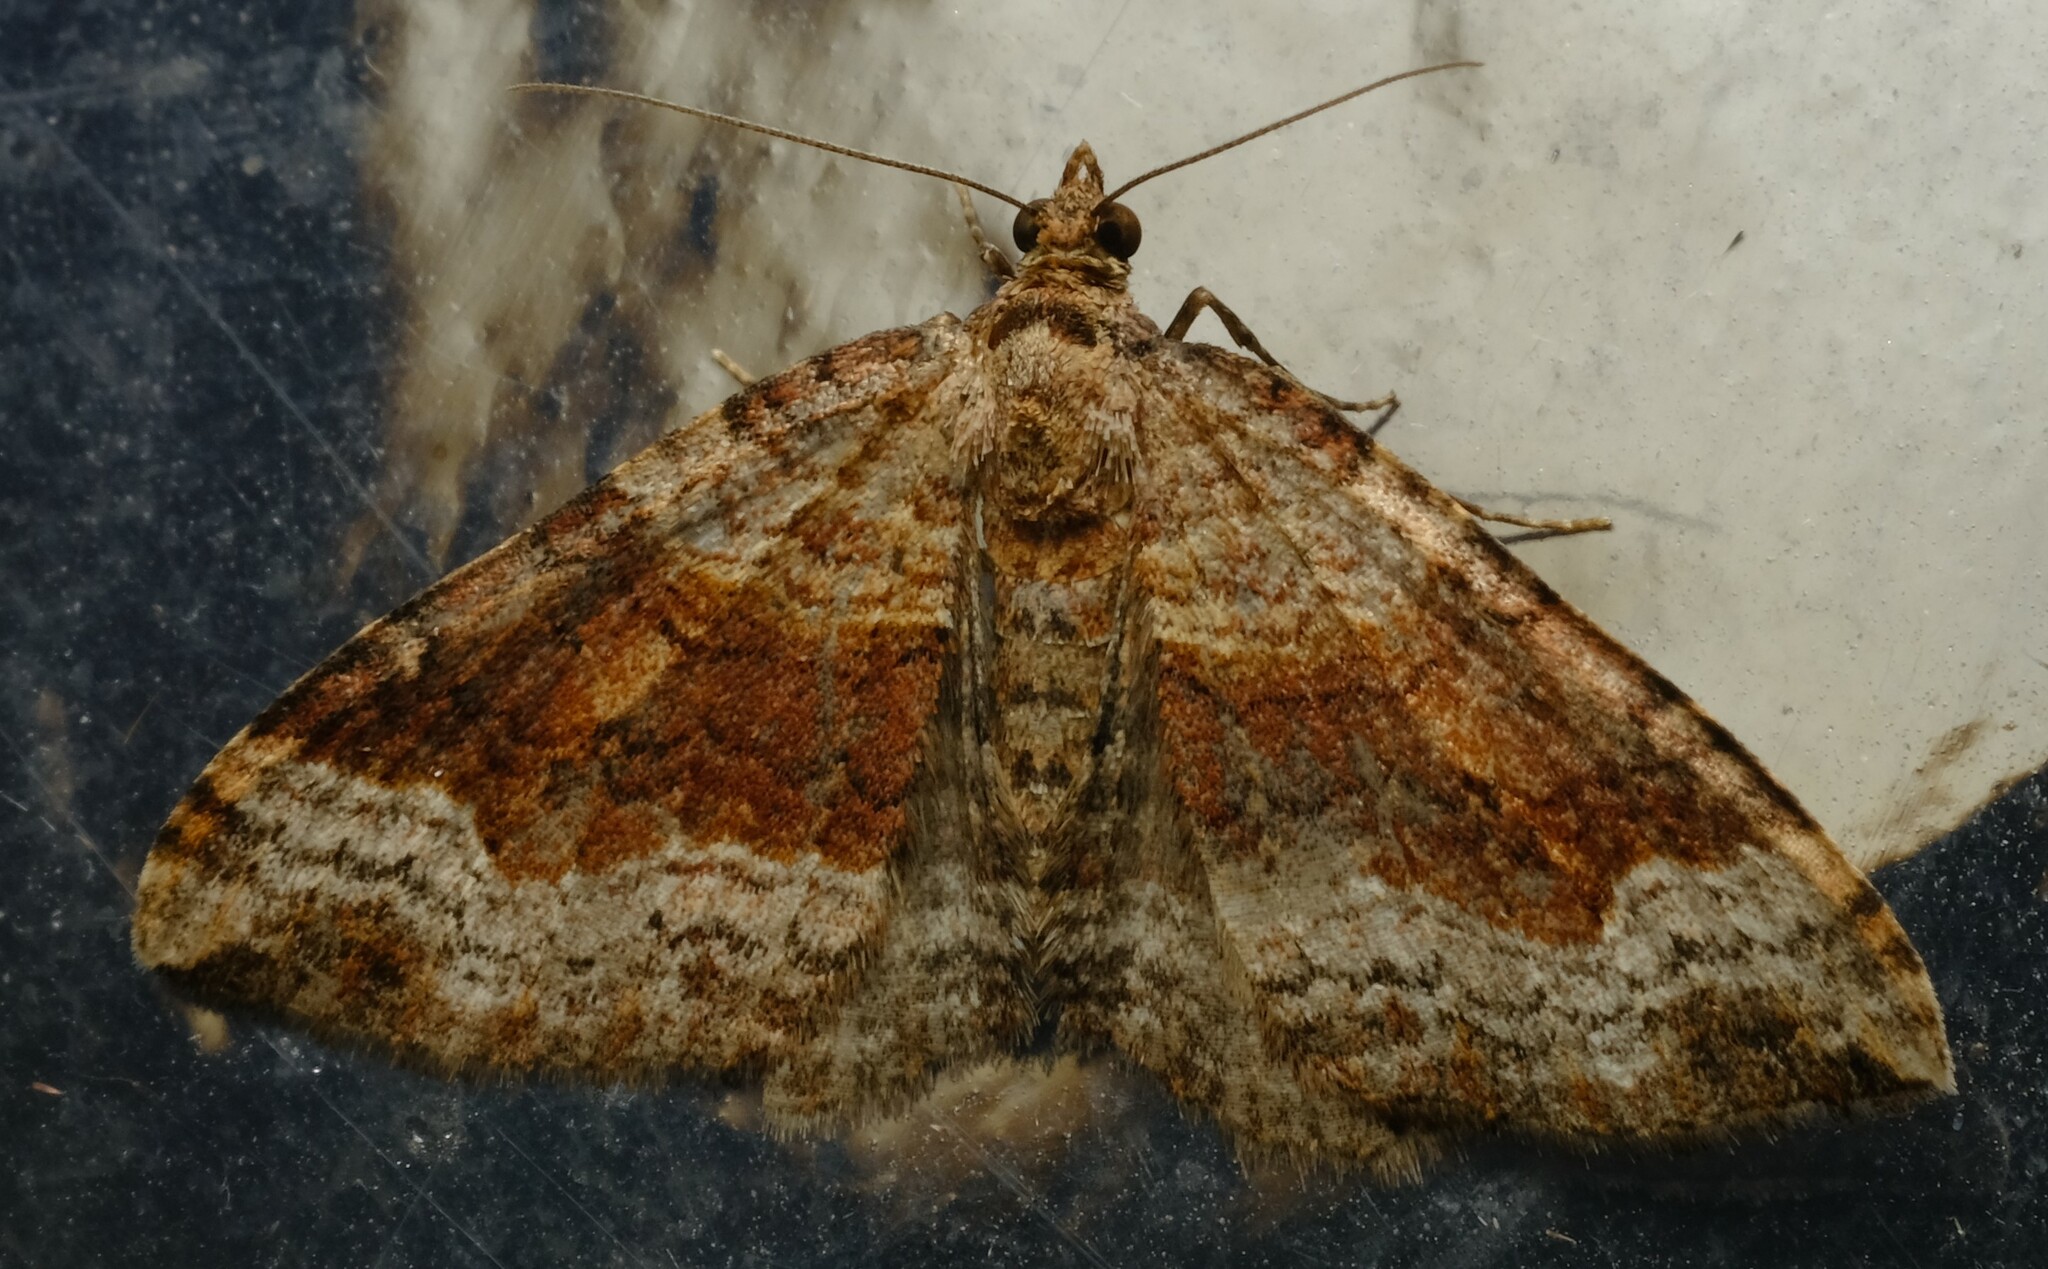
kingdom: Animalia
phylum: Arthropoda
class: Insecta
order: Lepidoptera
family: Geometridae
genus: Epyaxa
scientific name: Epyaxa subidaria
